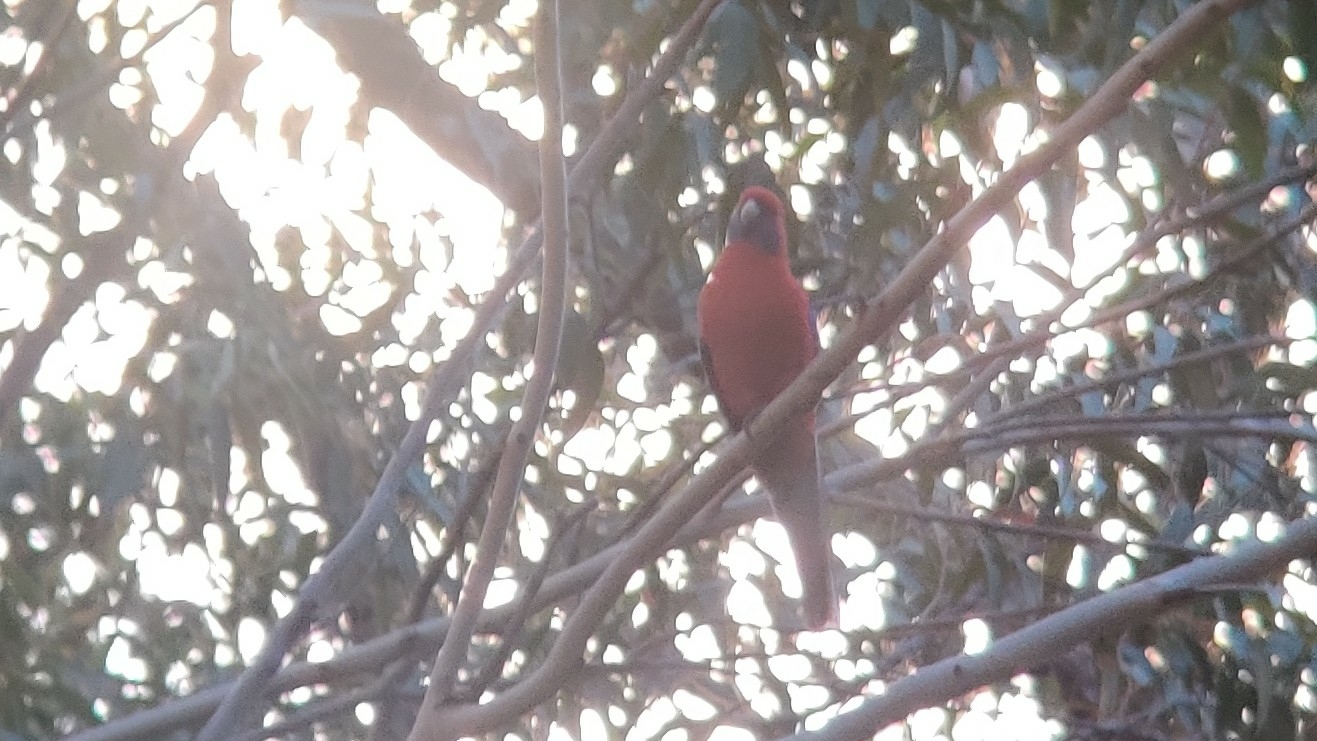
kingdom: Animalia
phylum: Chordata
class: Aves
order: Psittaciformes
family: Psittacidae
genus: Platycercus
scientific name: Platycercus elegans
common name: Crimson rosella
